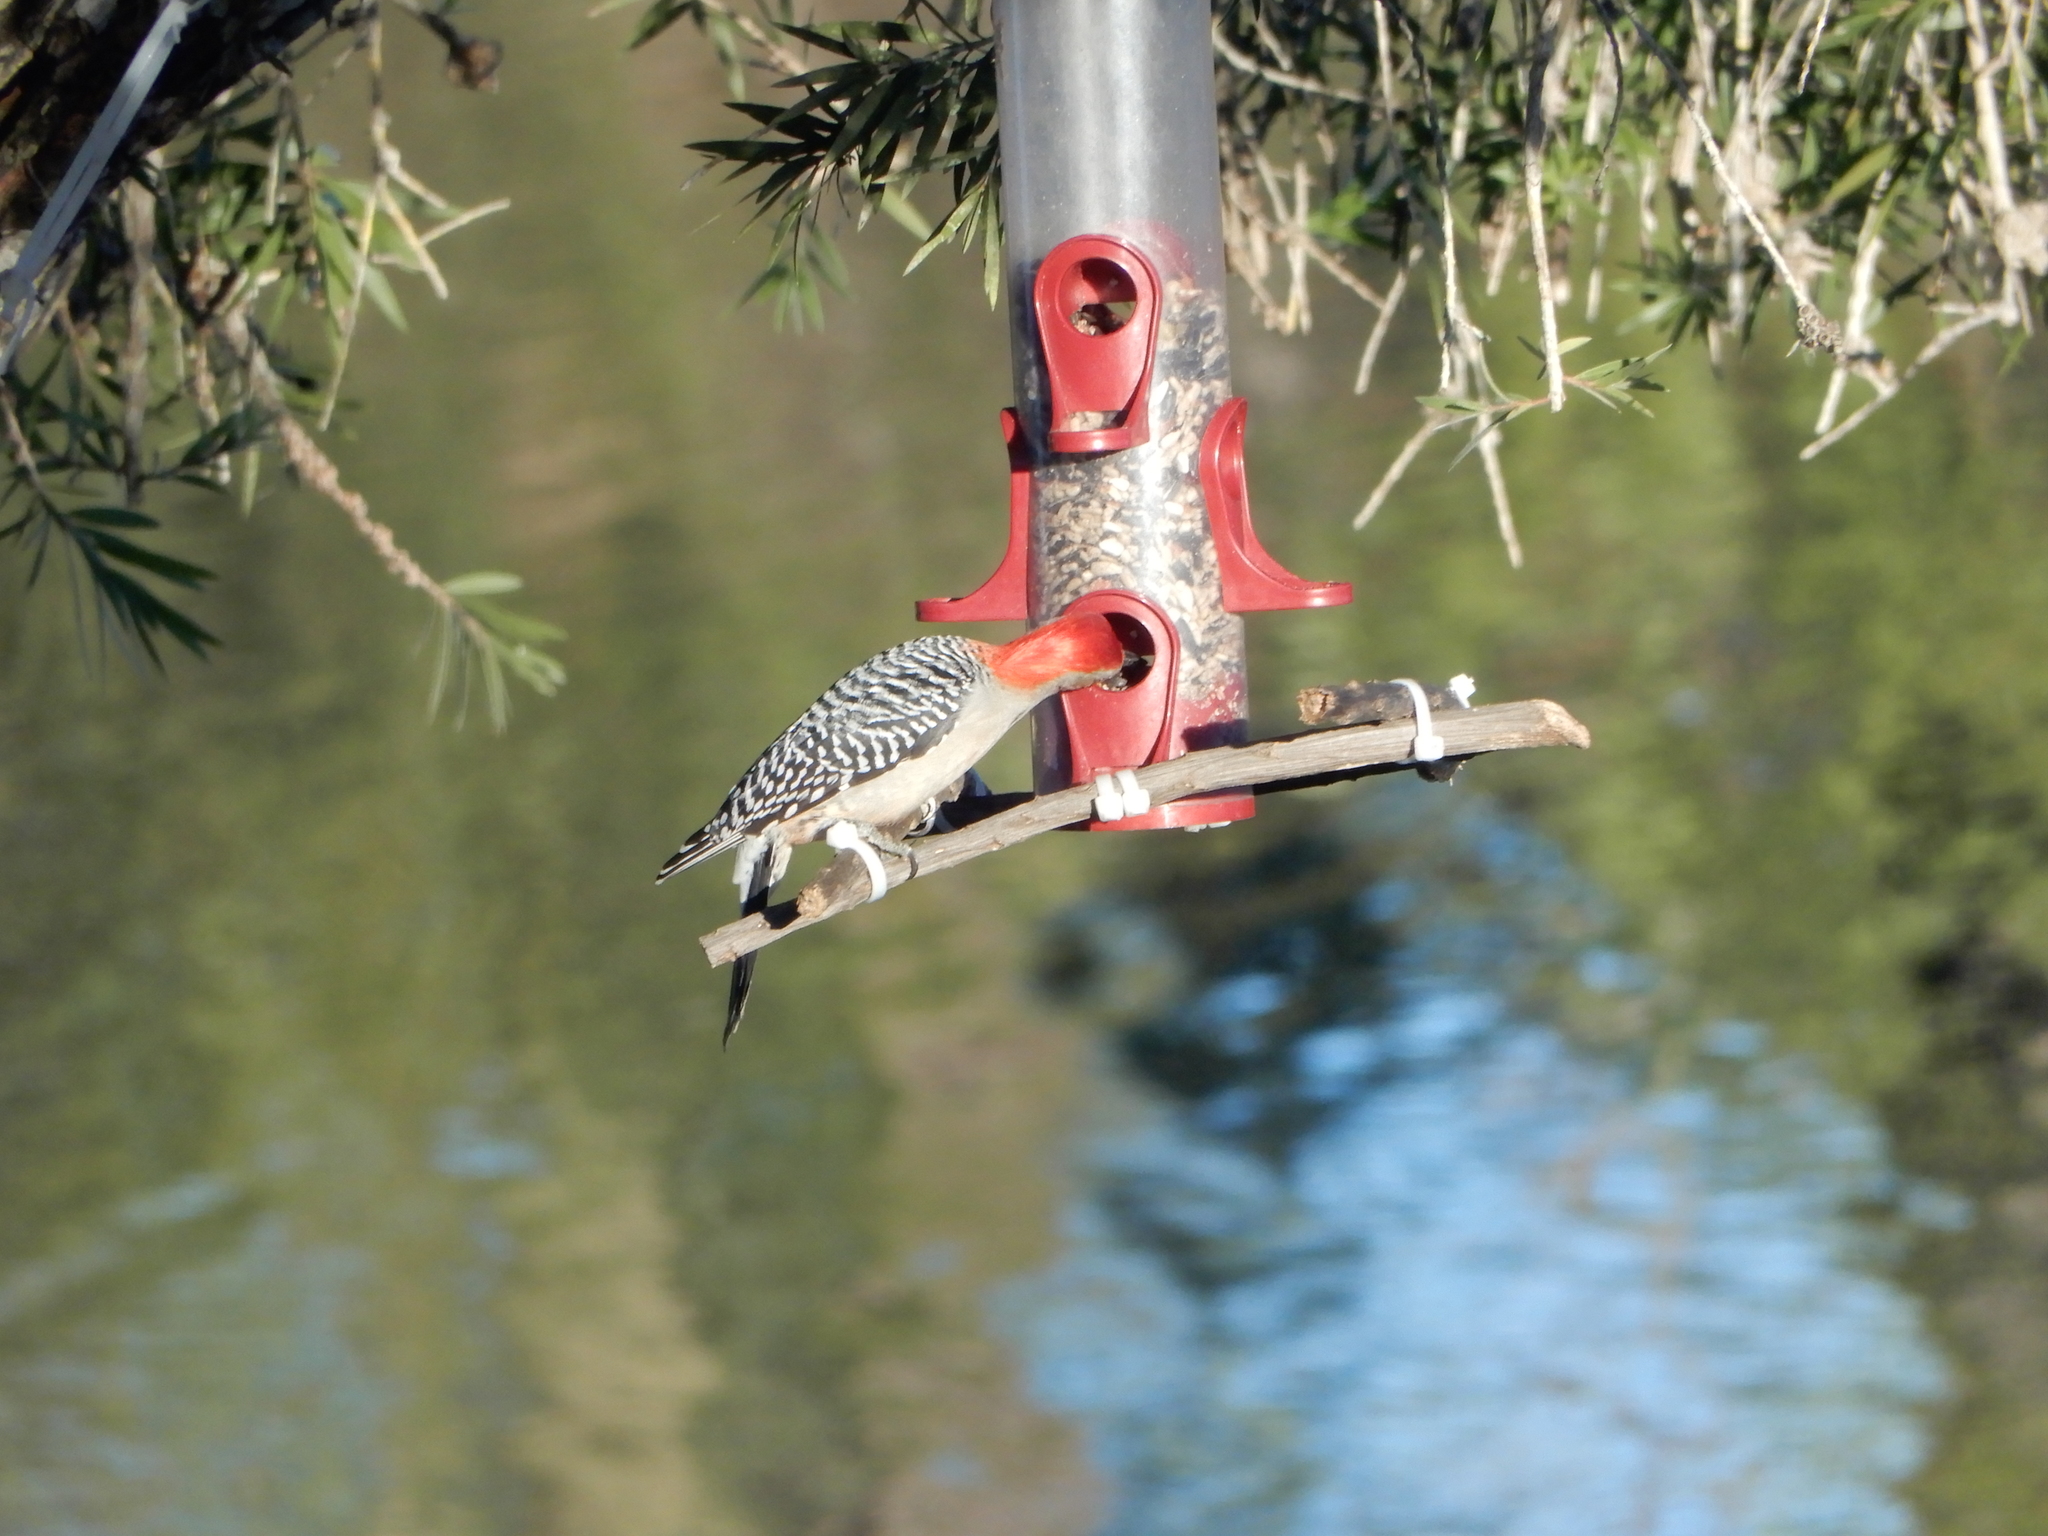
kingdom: Animalia
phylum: Chordata
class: Aves
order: Piciformes
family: Picidae
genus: Melanerpes
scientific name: Melanerpes carolinus
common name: Red-bellied woodpecker
